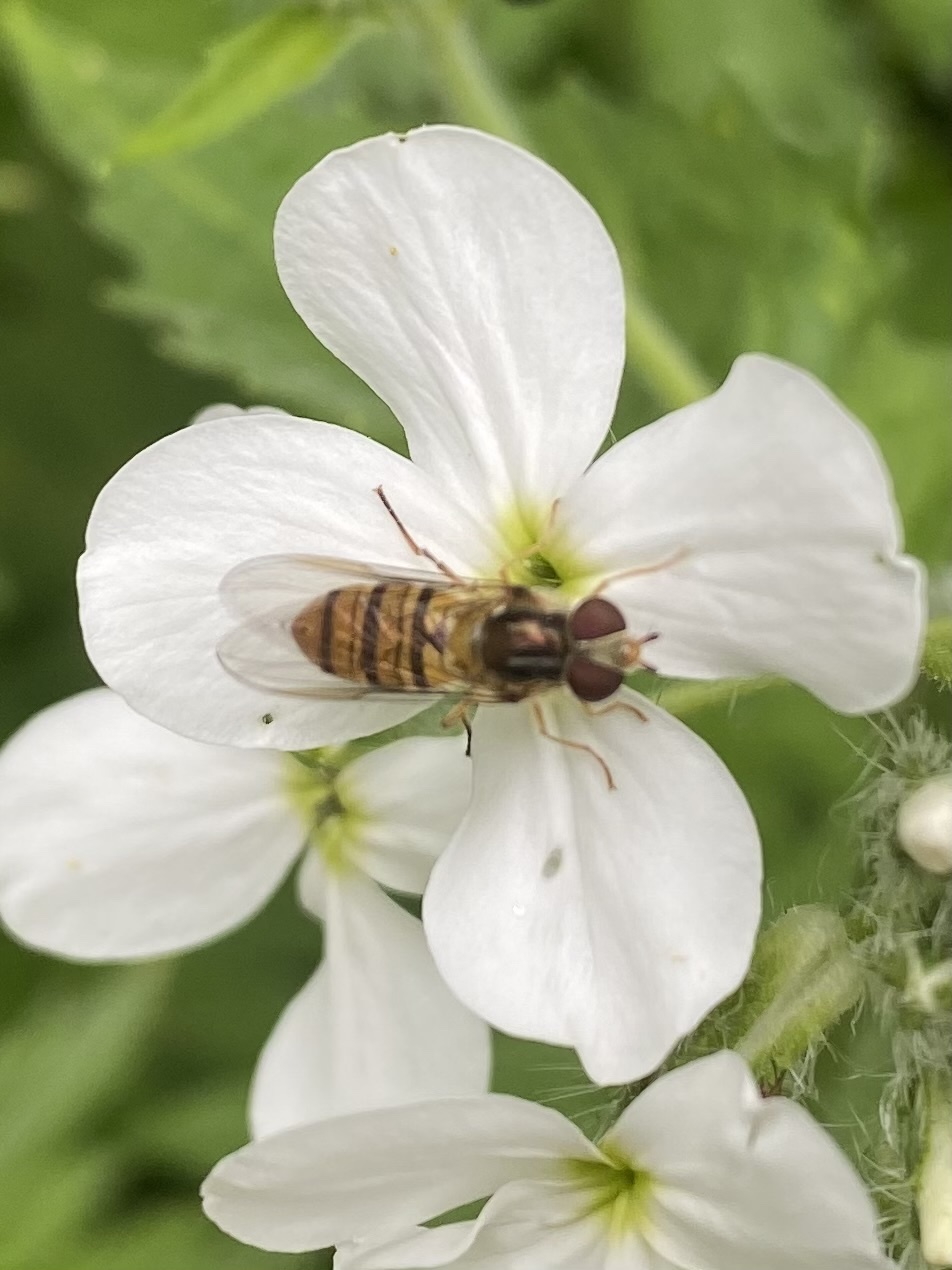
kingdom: Animalia
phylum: Arthropoda
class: Insecta
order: Diptera
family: Syrphidae
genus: Episyrphus
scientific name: Episyrphus balteatus
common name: Marmalade hoverfly
